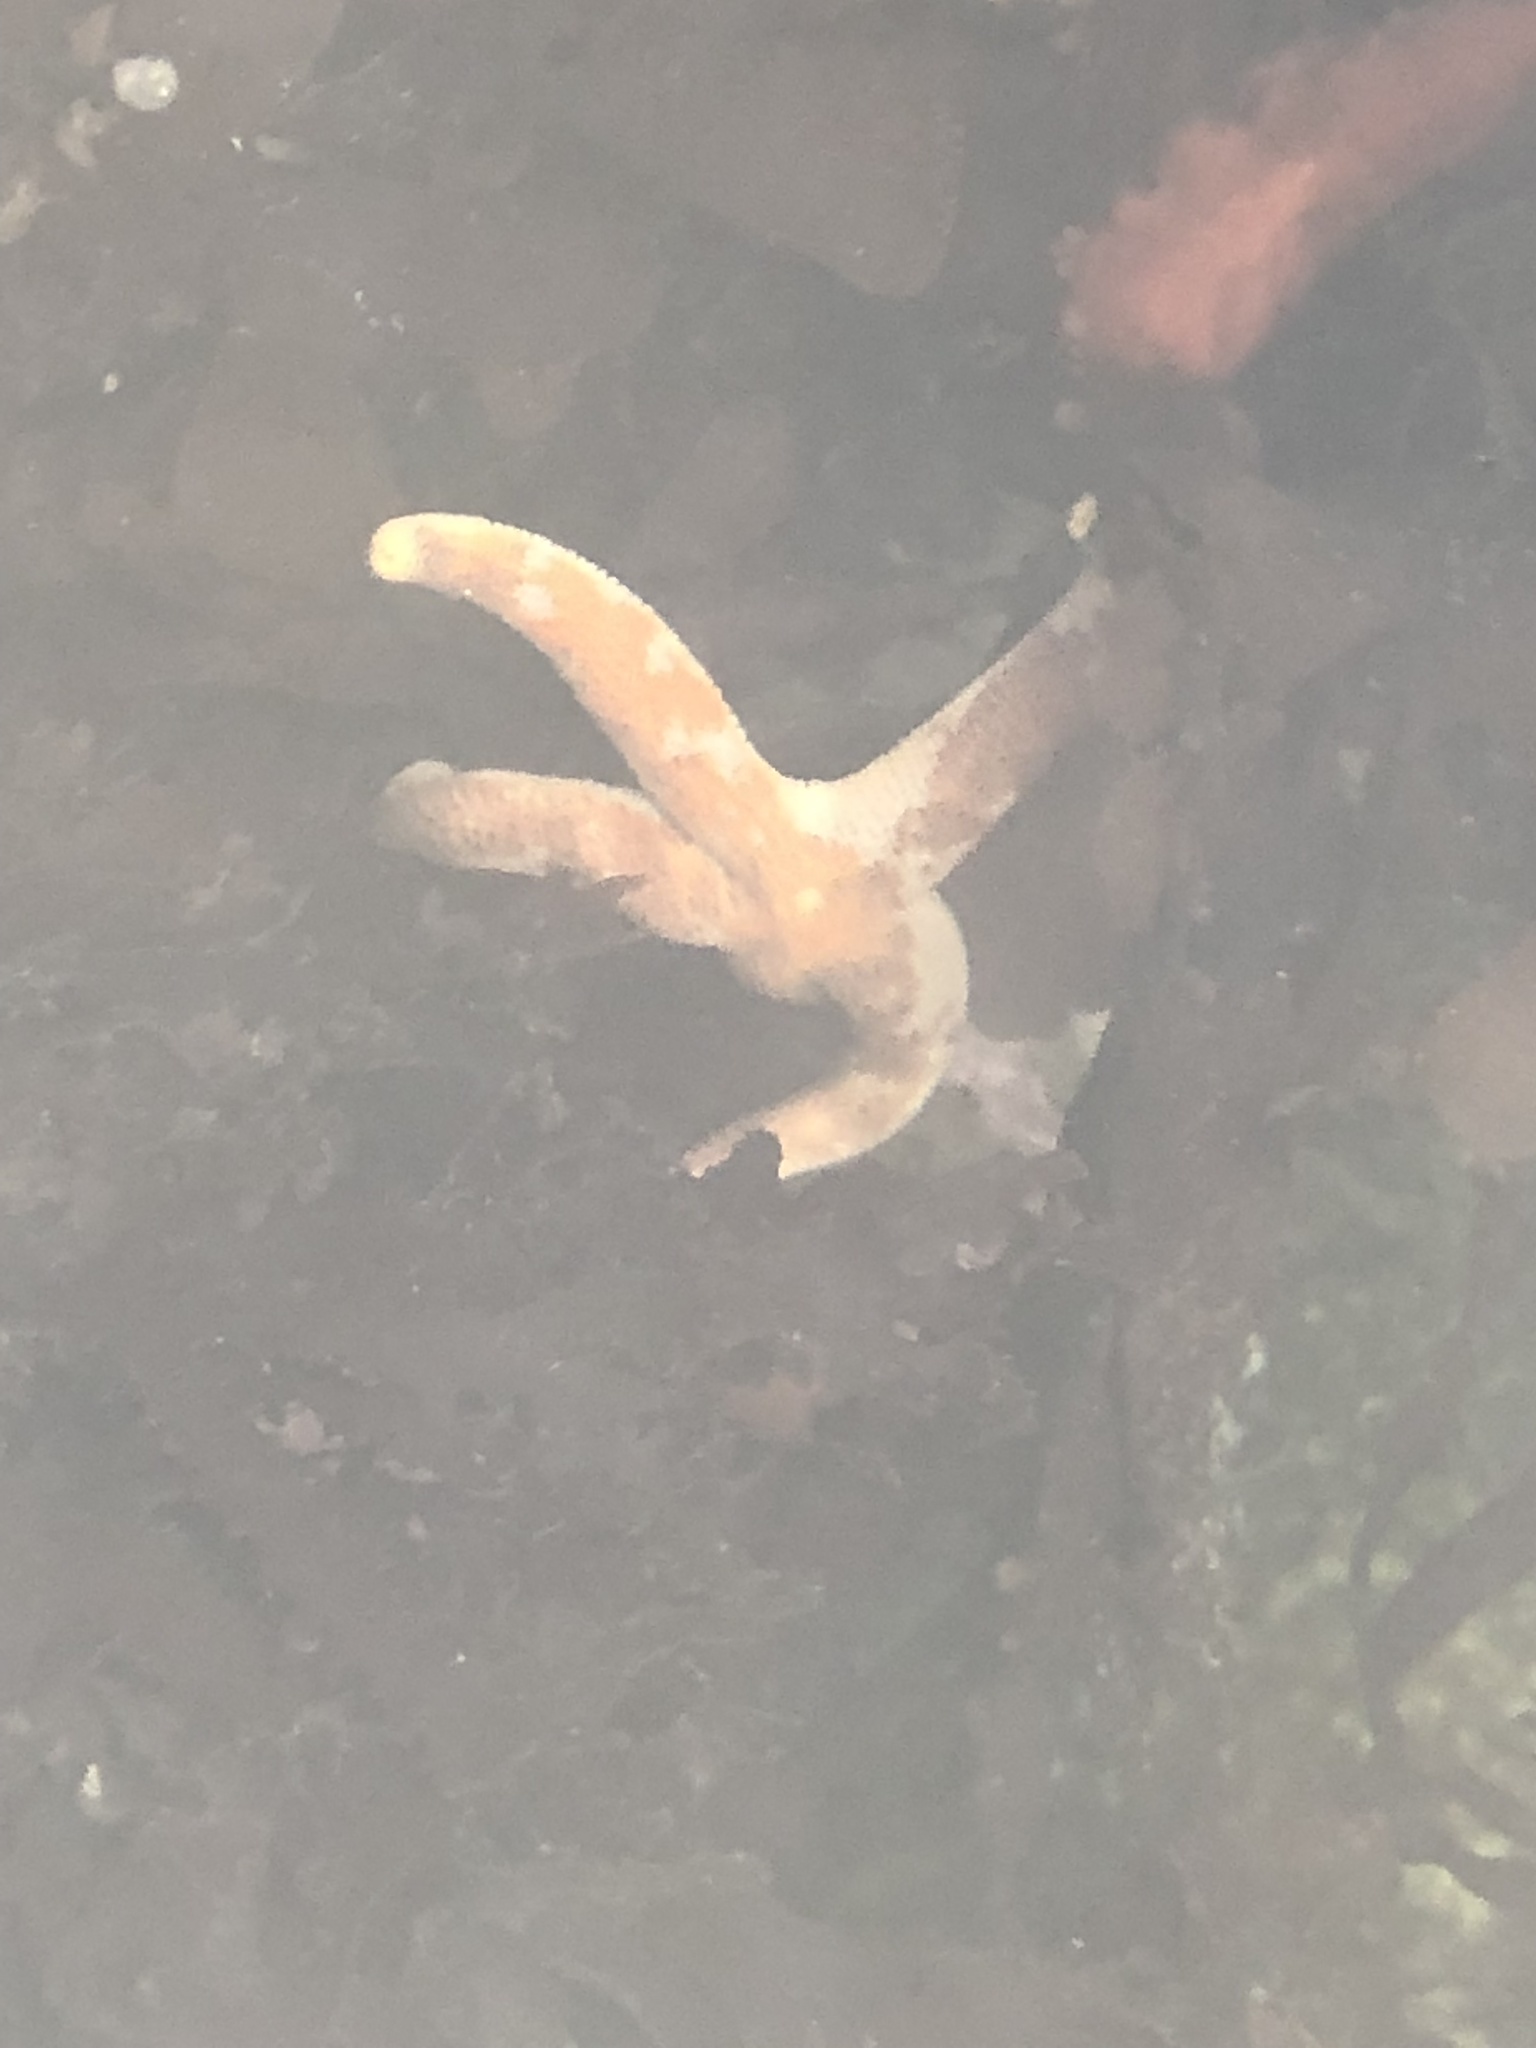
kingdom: Animalia
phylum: Echinodermata
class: Asteroidea
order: Spinulosida
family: Echinasteridae
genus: Henricia
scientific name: Henricia pumila
